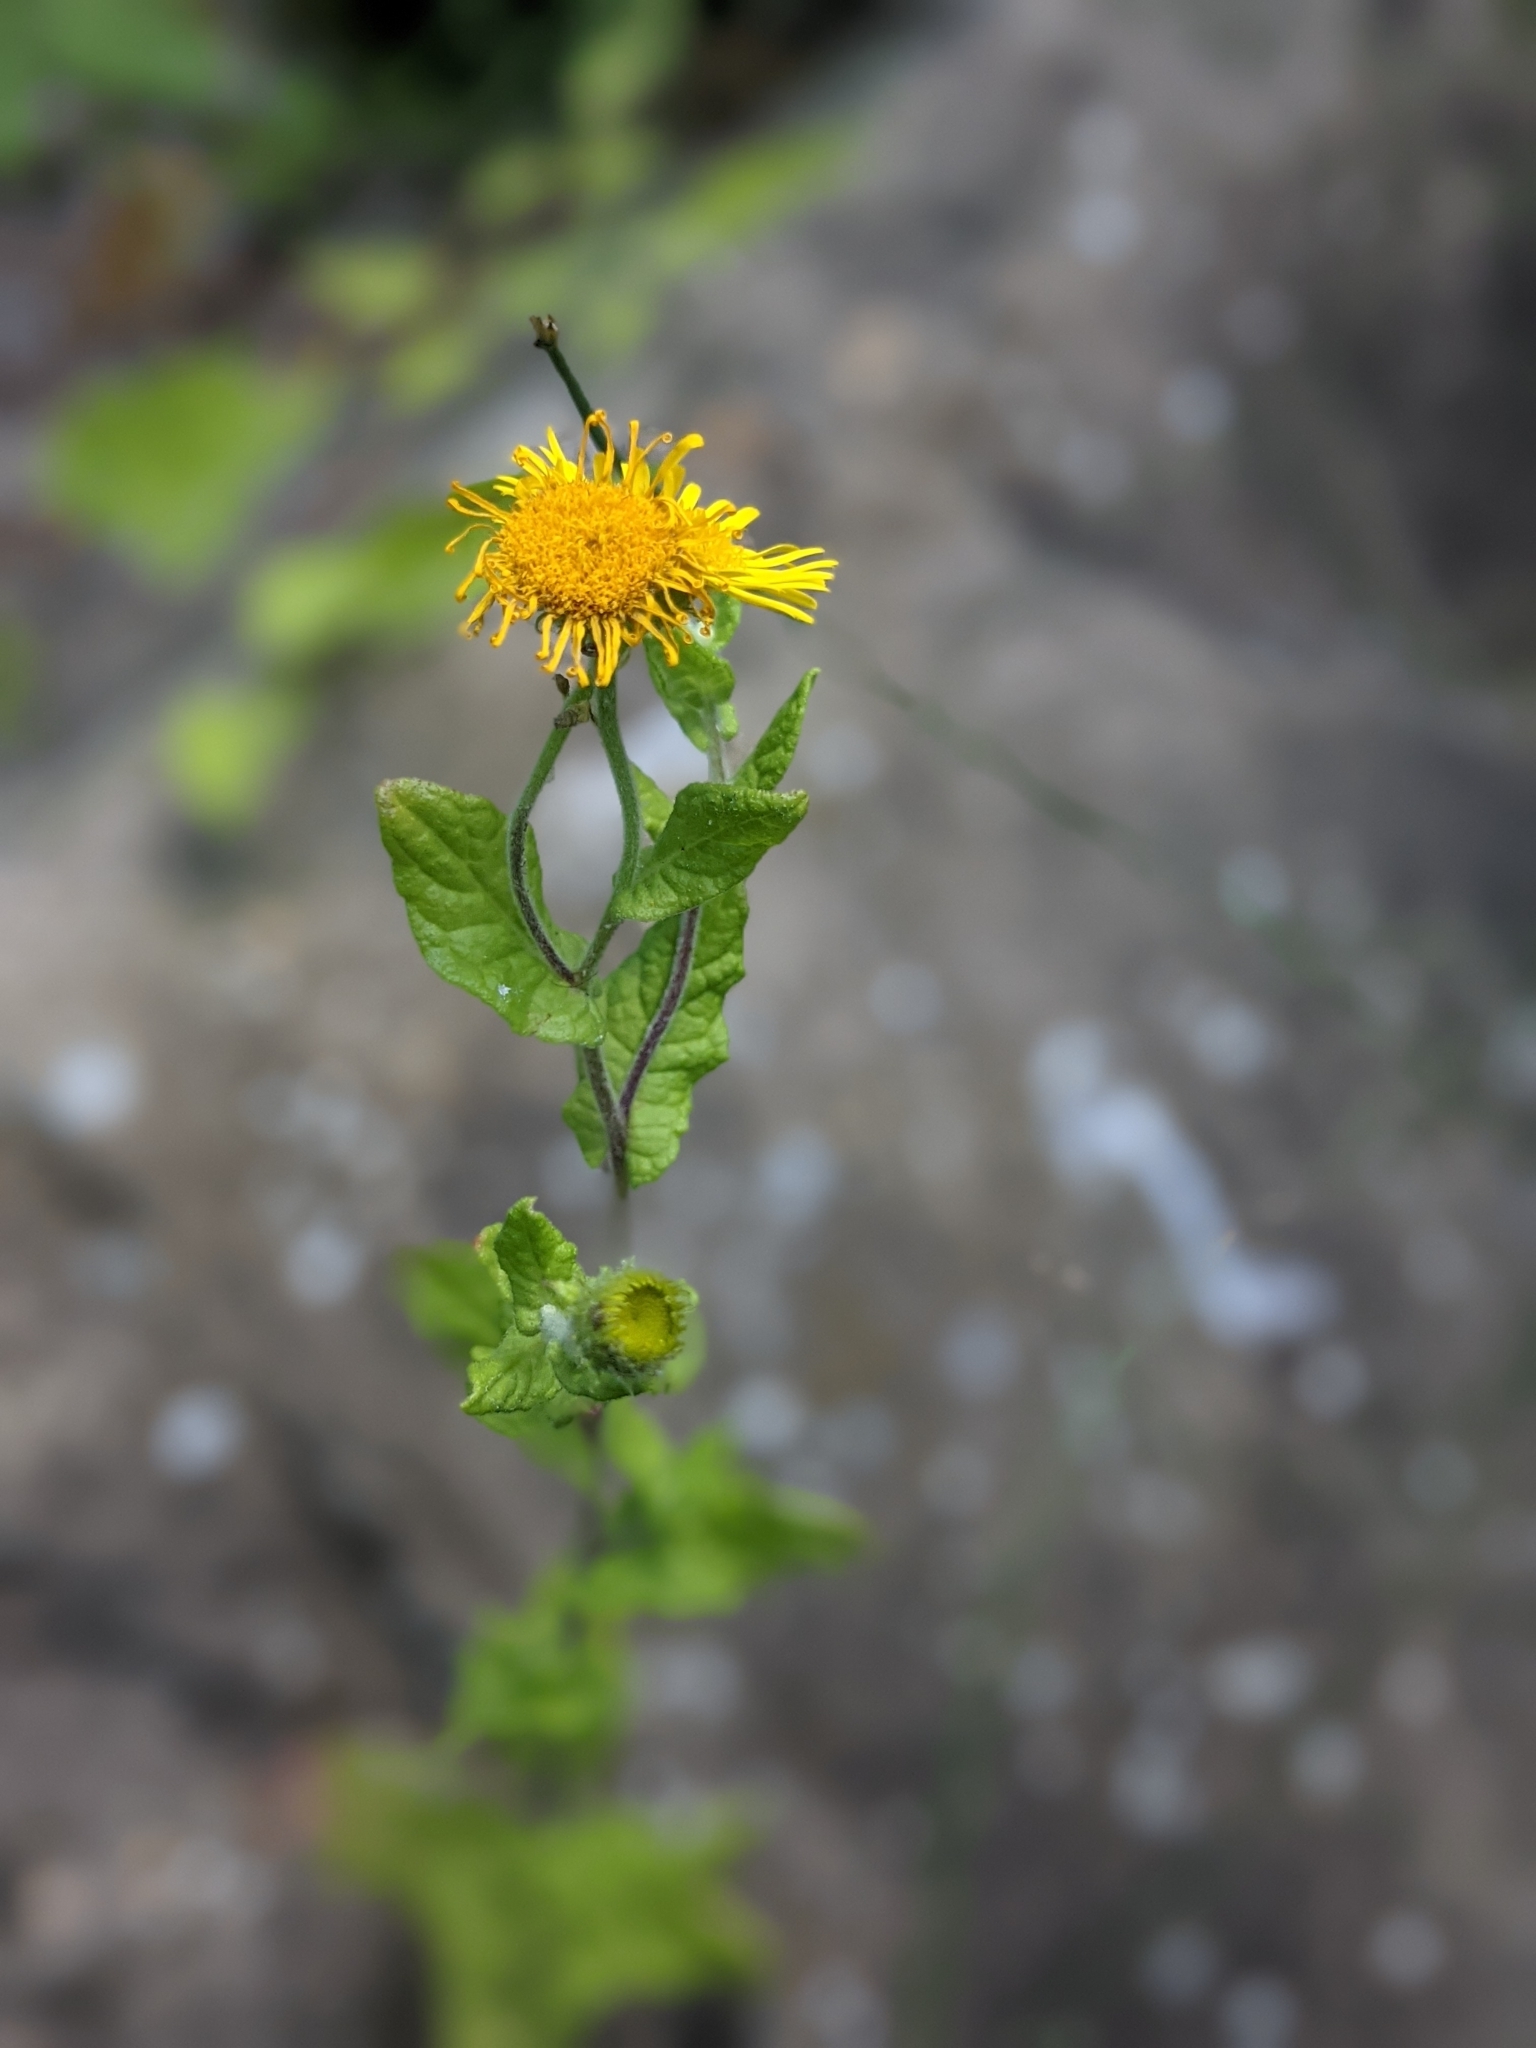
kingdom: Plantae
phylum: Tracheophyta
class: Magnoliopsida
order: Asterales
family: Asteraceae
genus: Pulicaria
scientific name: Pulicaria dysenterica
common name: Common fleabane
